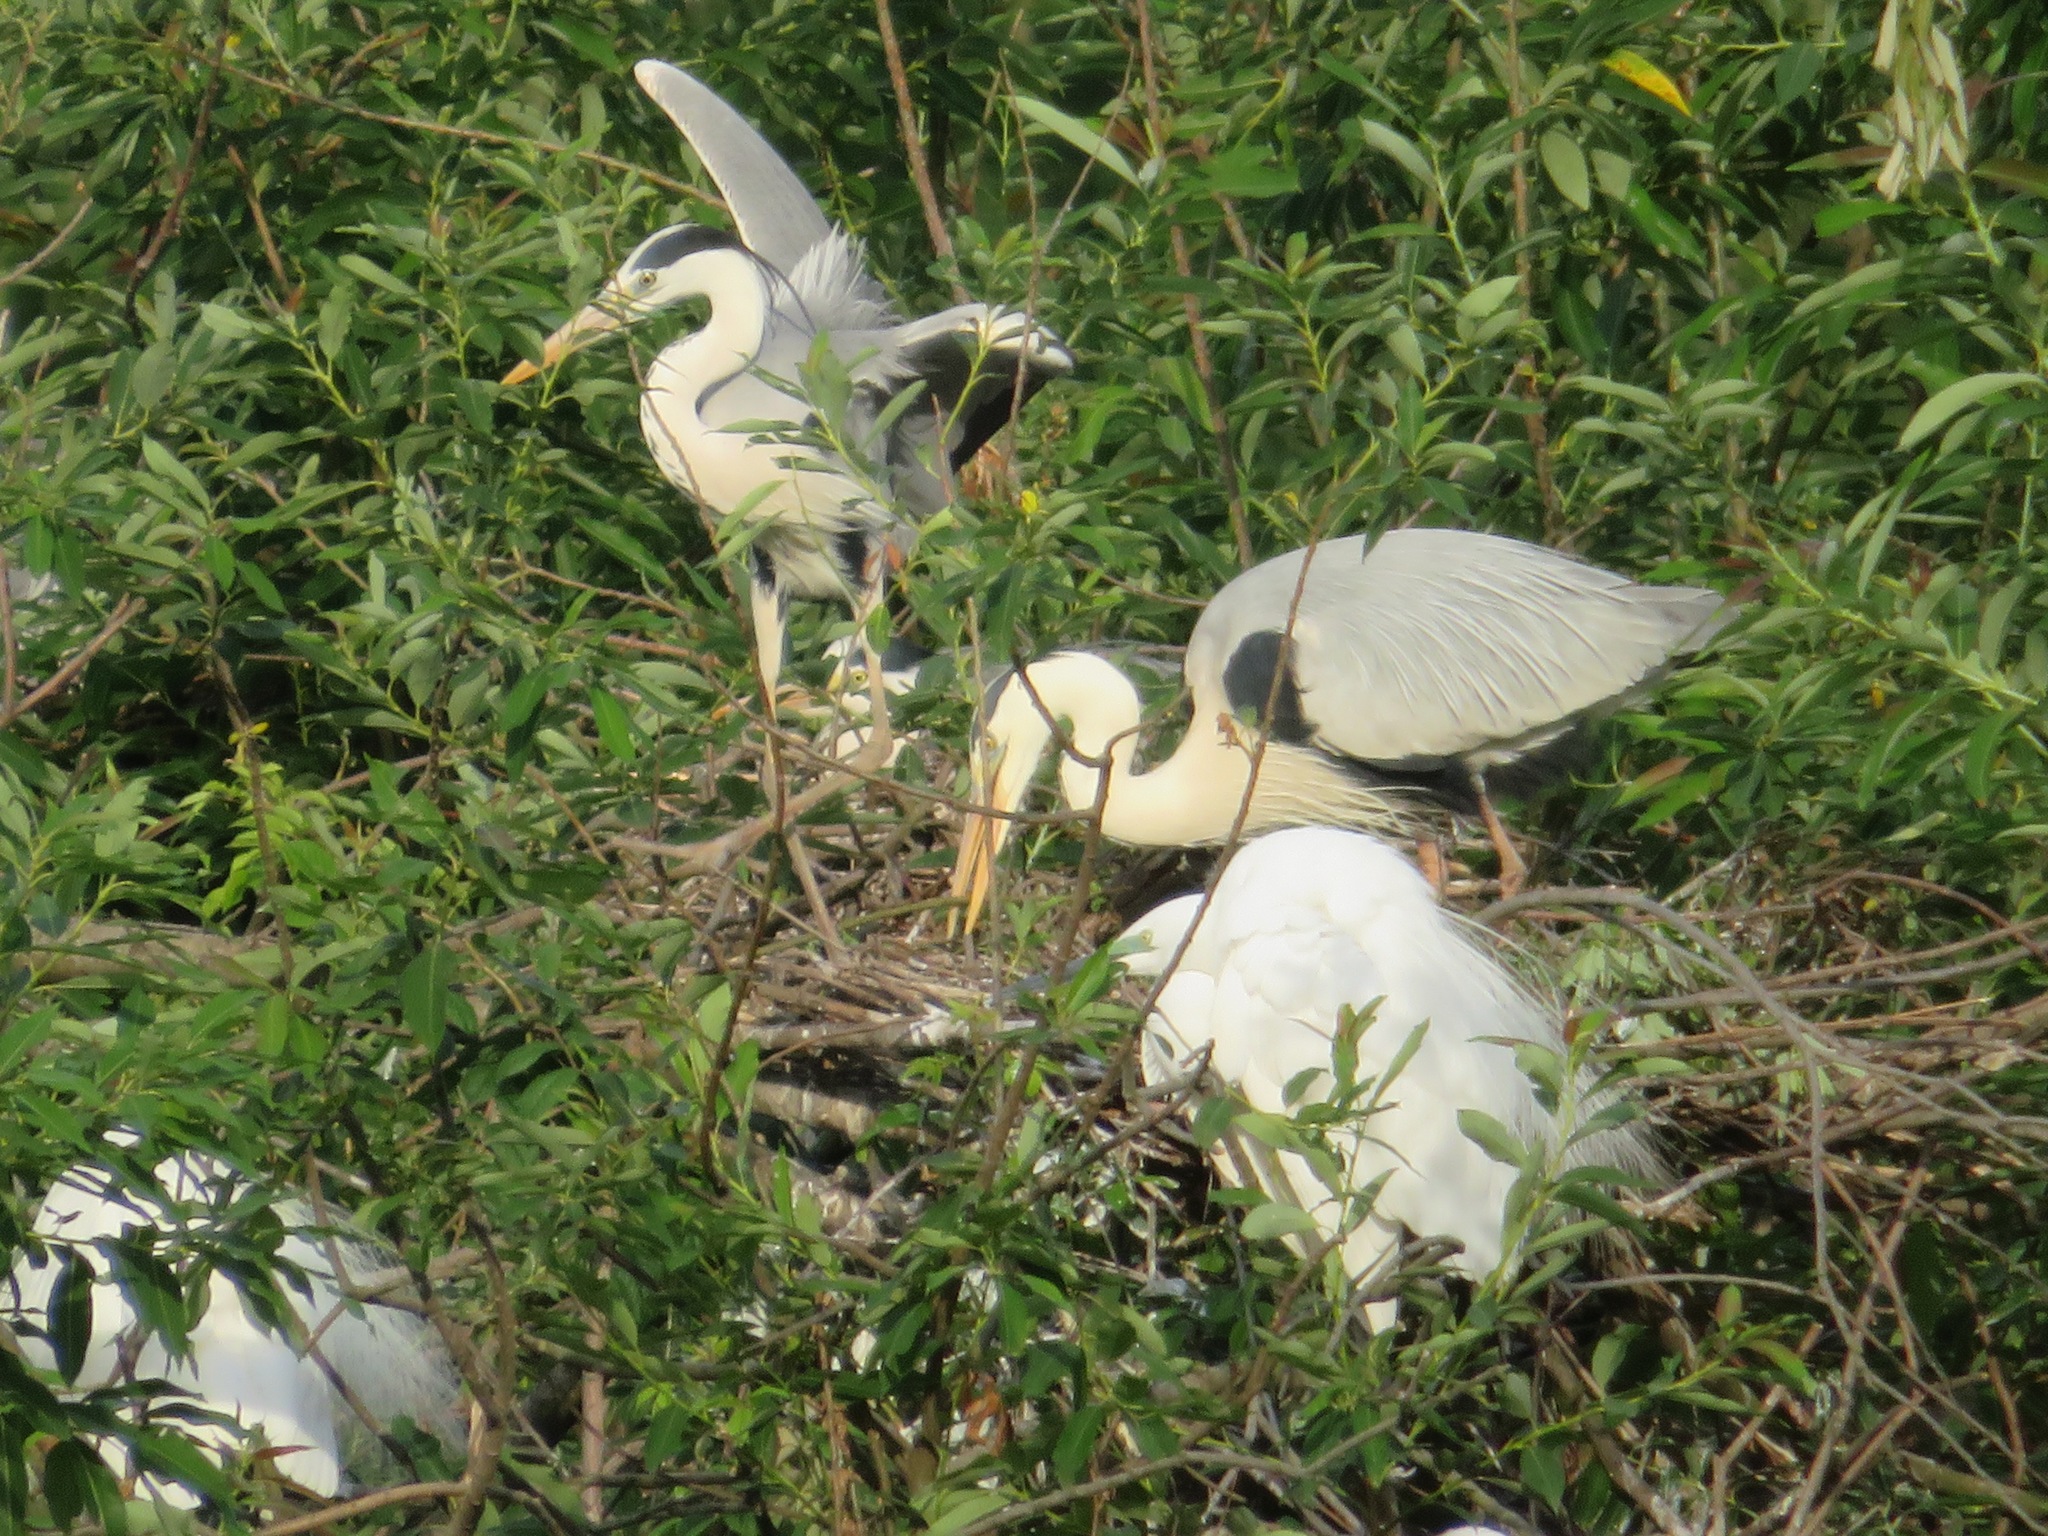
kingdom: Animalia
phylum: Chordata
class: Aves
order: Pelecaniformes
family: Ardeidae
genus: Ardea
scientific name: Ardea cinerea
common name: Grey heron
